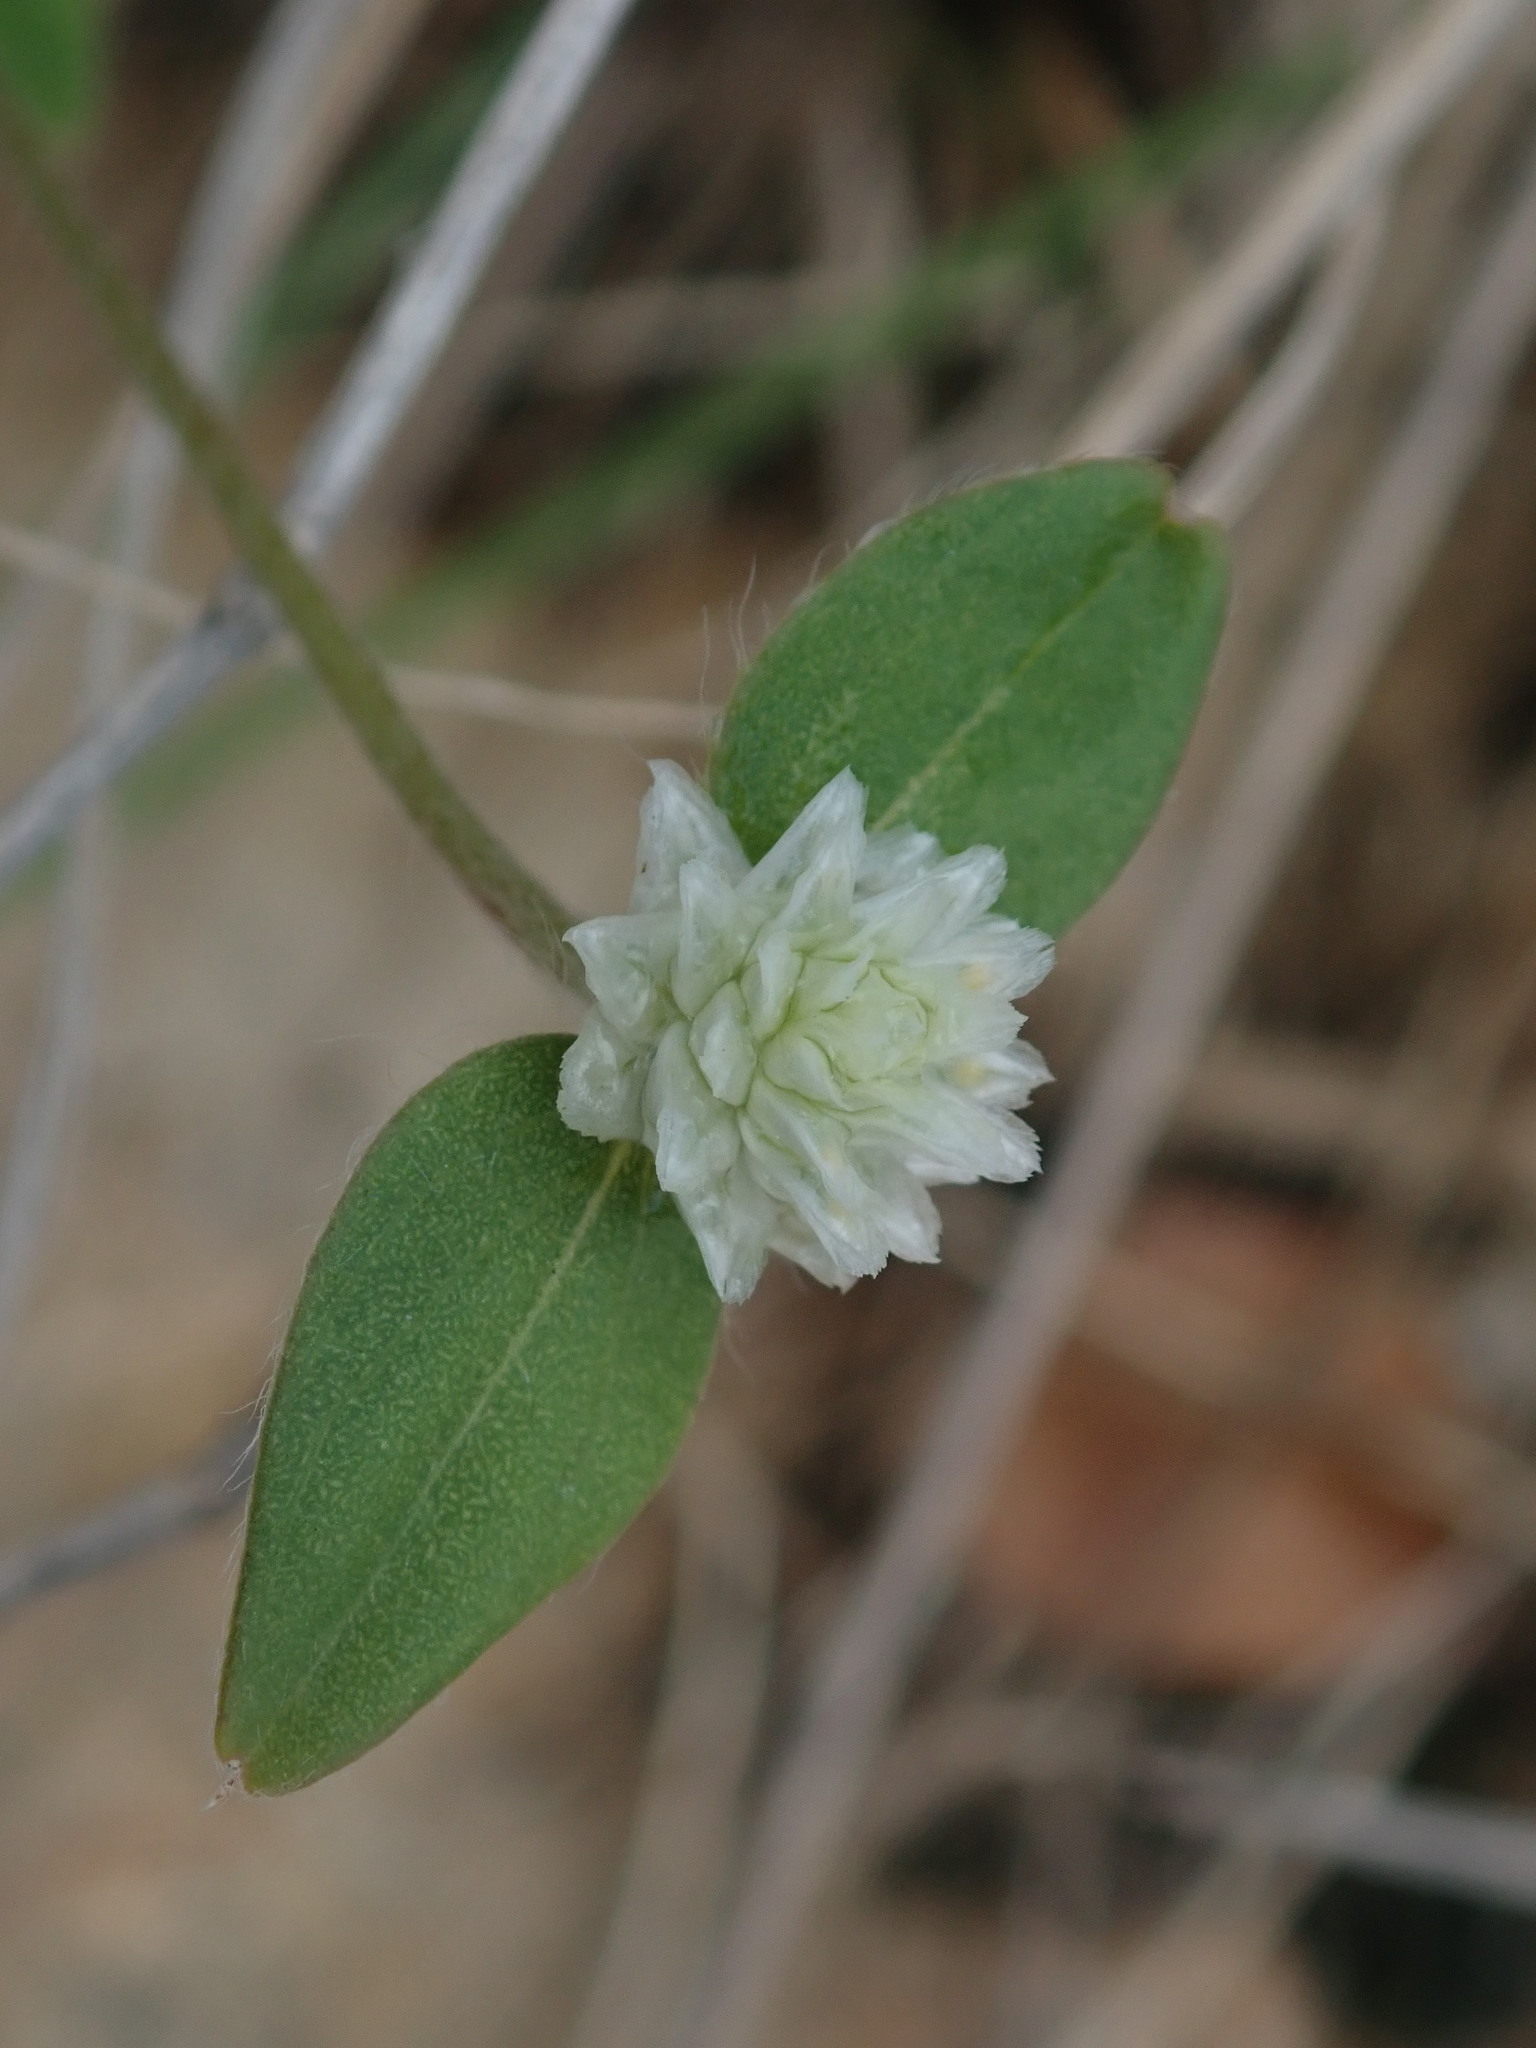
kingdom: Plantae
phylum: Tracheophyta
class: Magnoliopsida
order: Caryophyllales
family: Amaranthaceae
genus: Gomphrena
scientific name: Gomphrena serrata
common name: Arrasa con todo
